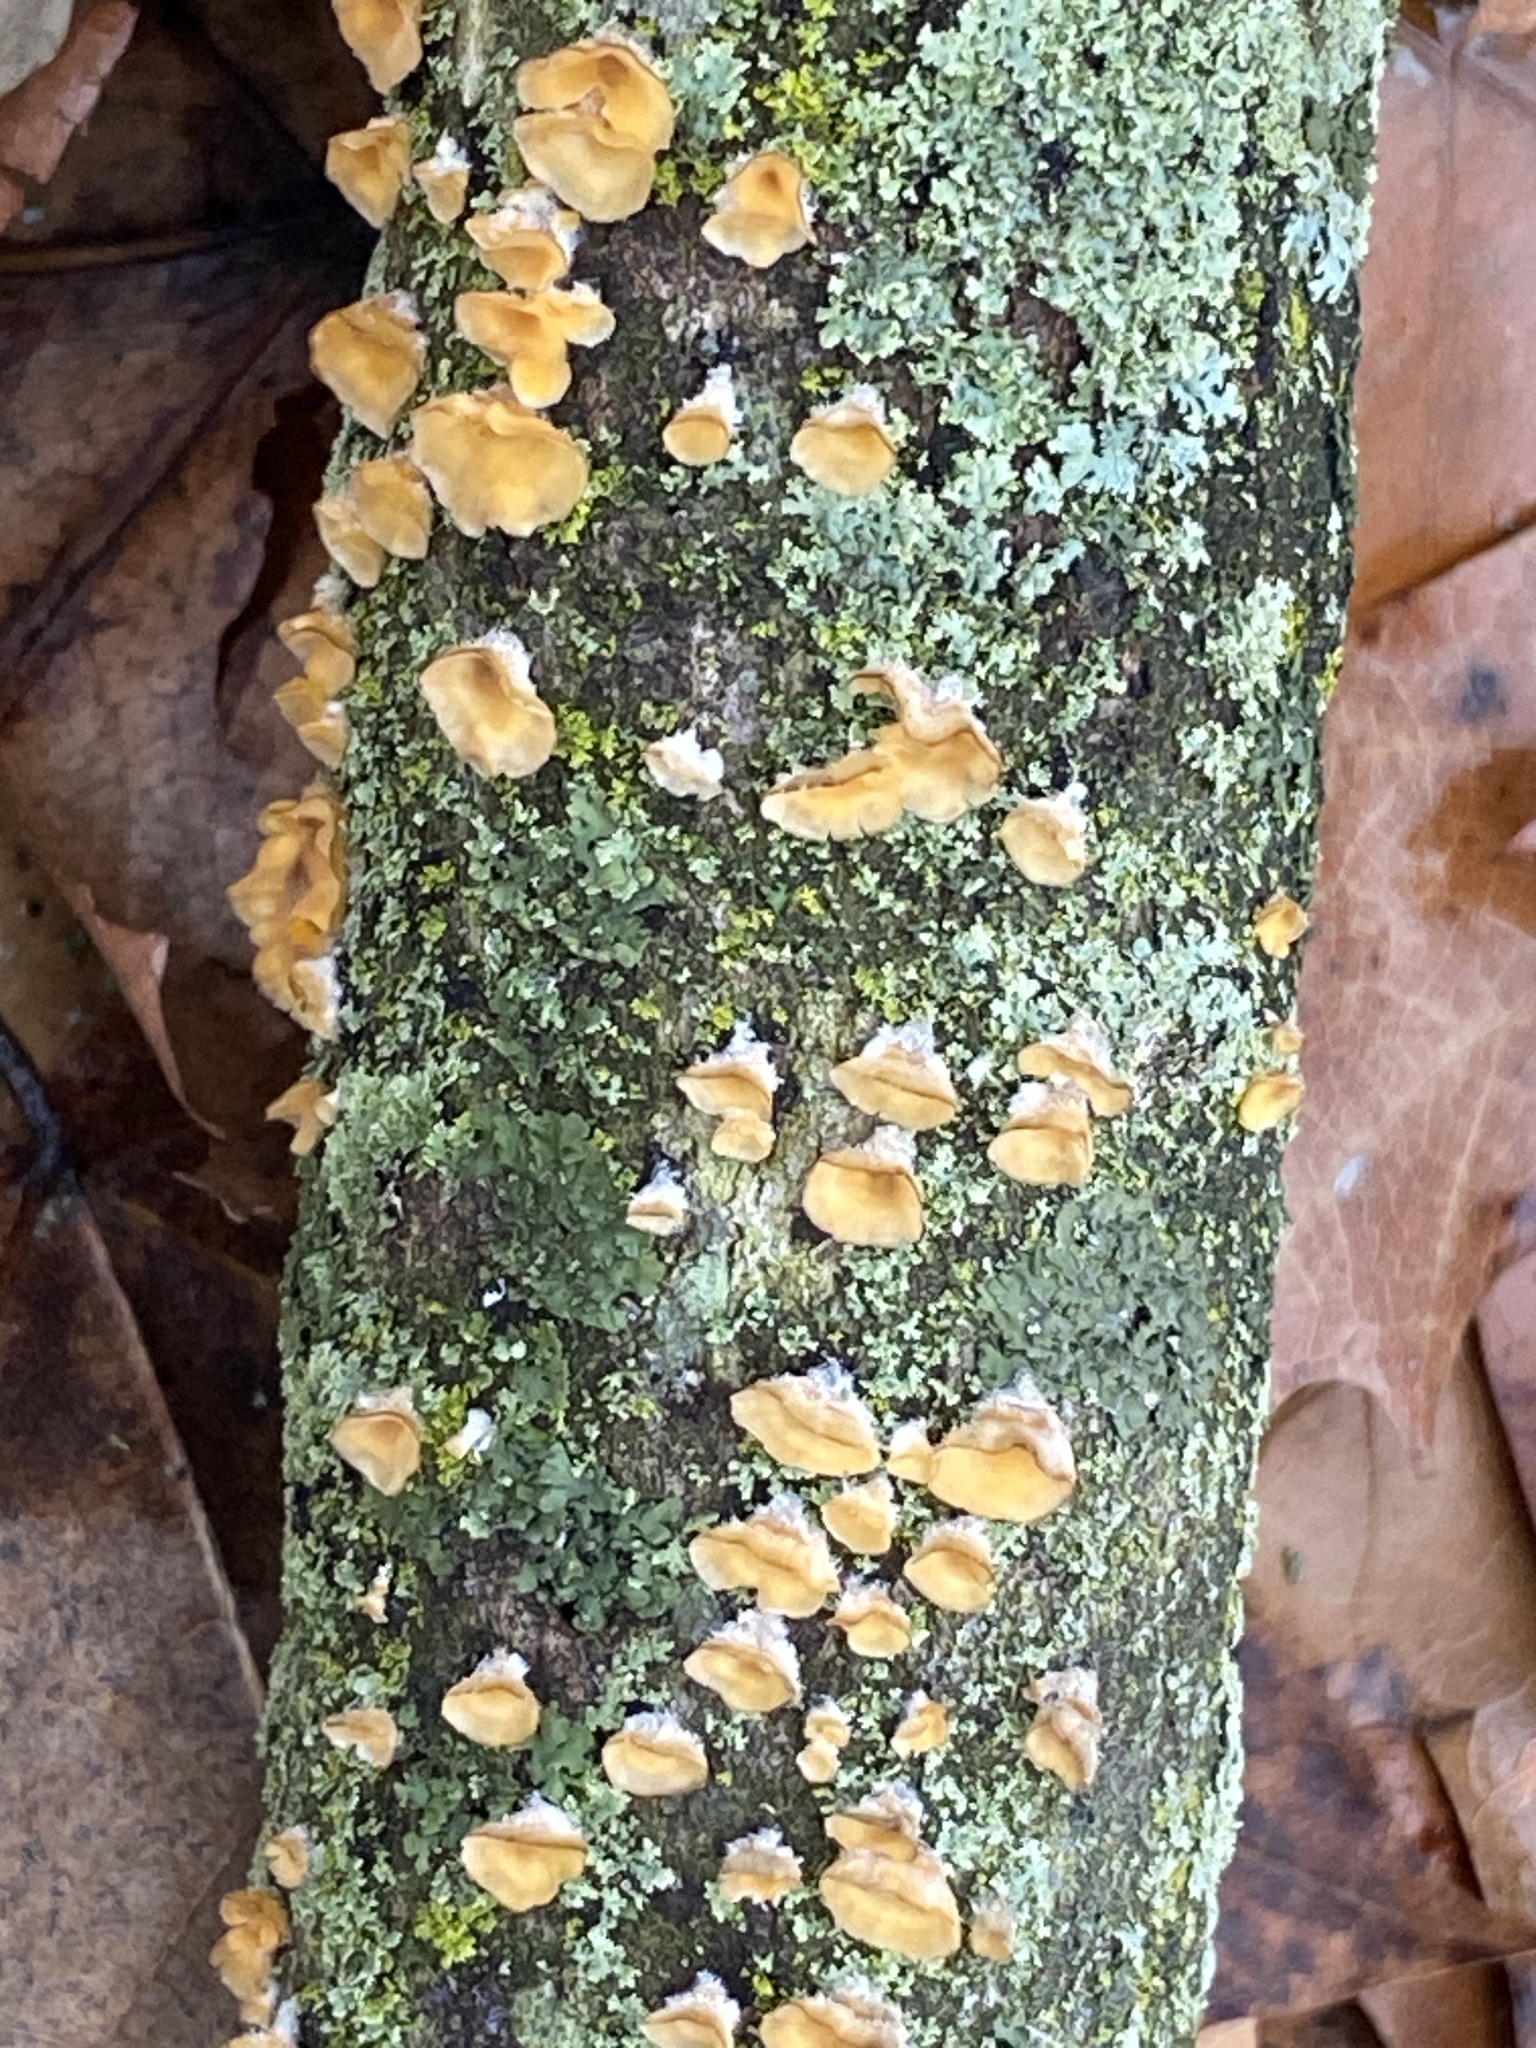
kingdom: Fungi
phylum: Basidiomycota
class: Agaricomycetes
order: Russulales
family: Stereaceae
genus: Stereum
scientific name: Stereum complicatum
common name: Crowded parchment
